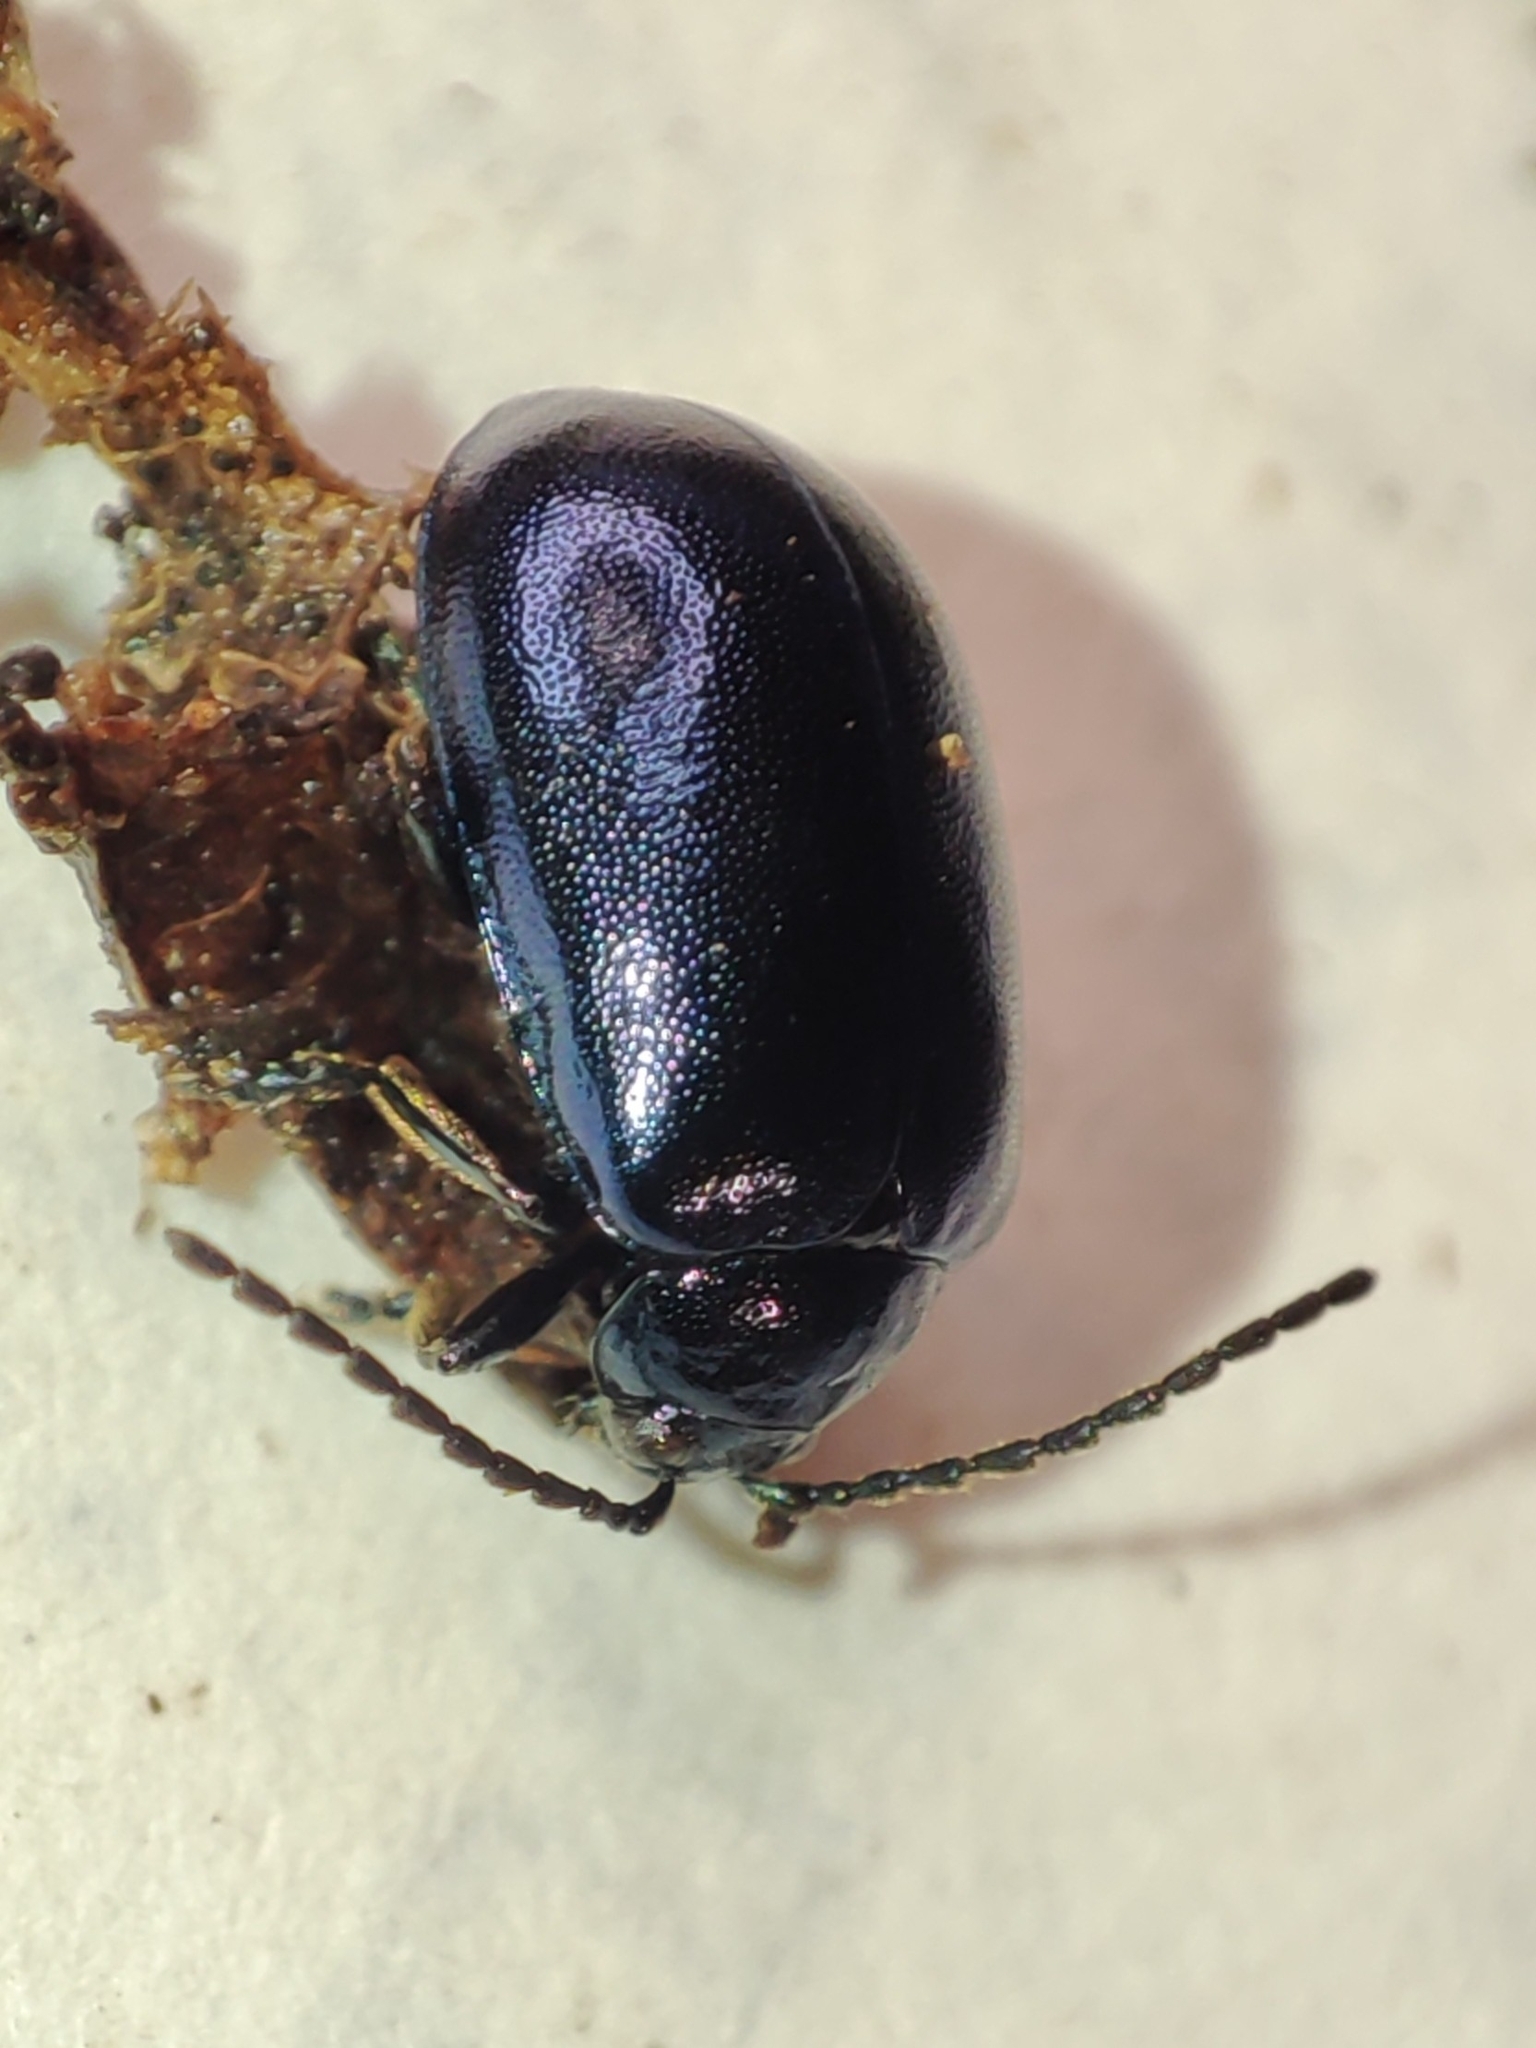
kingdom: Animalia
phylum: Arthropoda
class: Insecta
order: Coleoptera
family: Chrysomelidae
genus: Agelastica
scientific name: Agelastica alni
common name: Alder leaf beetle
